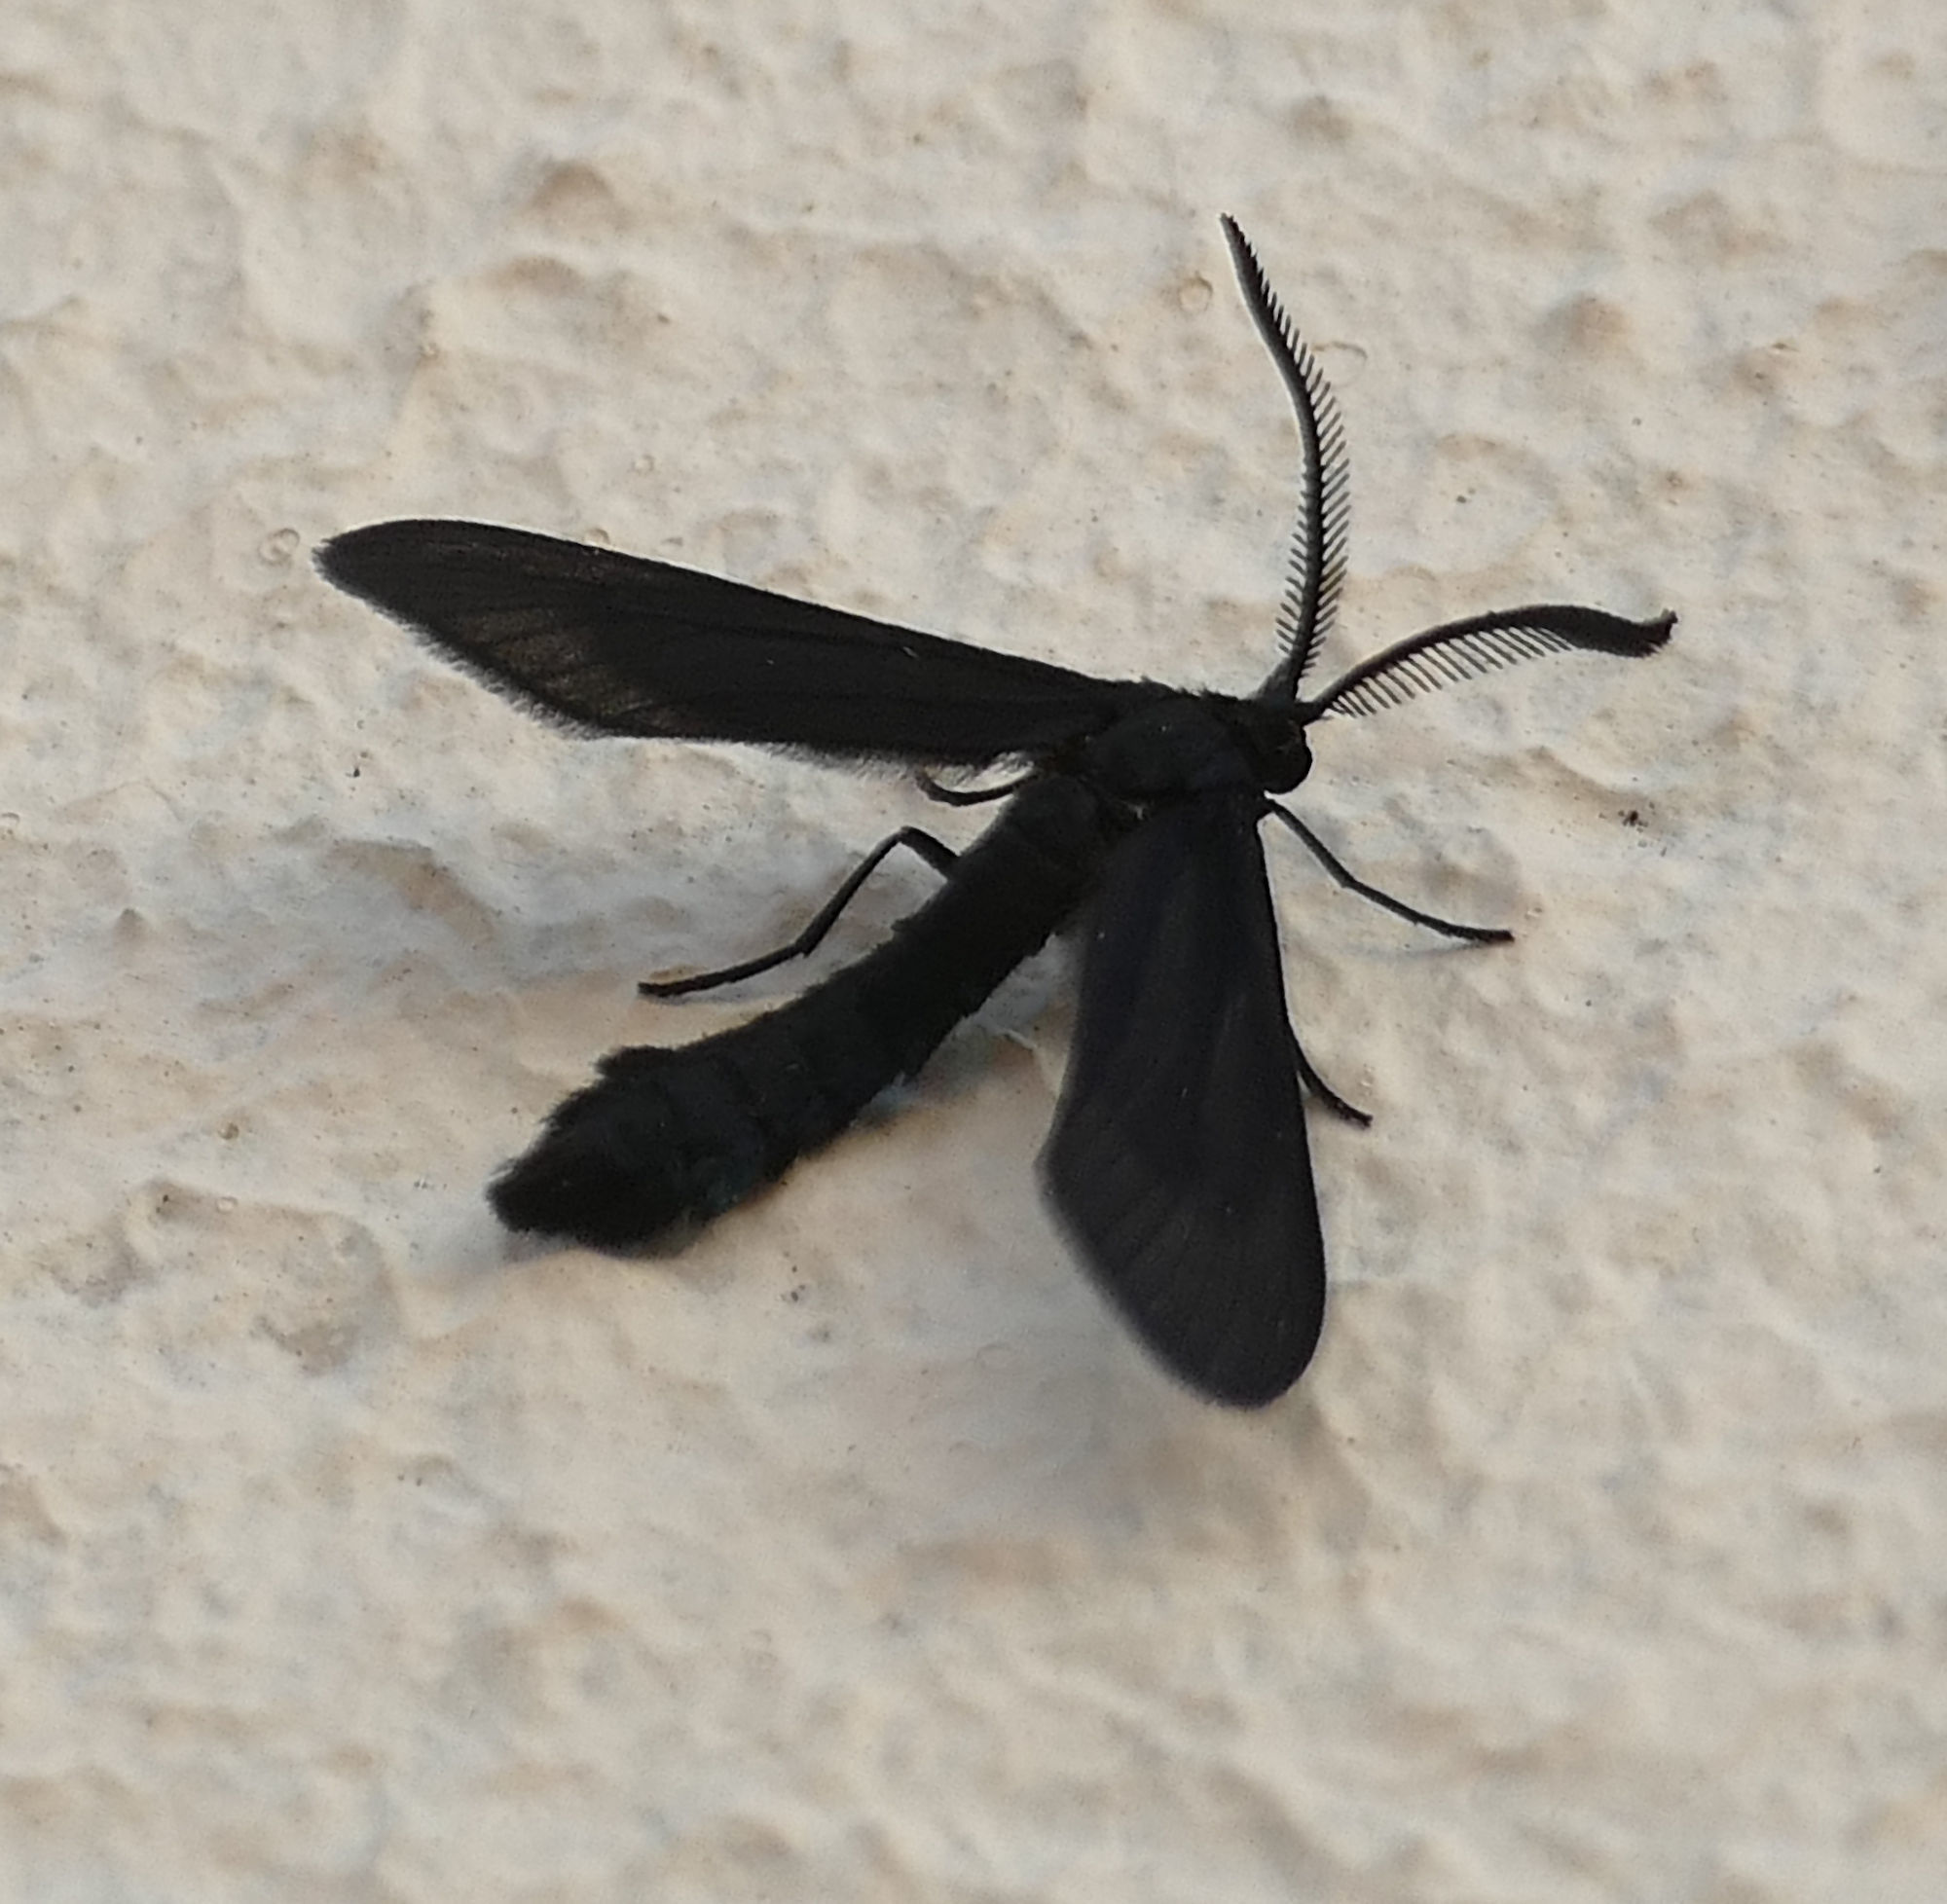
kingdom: Animalia
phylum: Arthropoda
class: Insecta
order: Lepidoptera
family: Zygaenidae
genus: Harrisina
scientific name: Harrisina coracina
